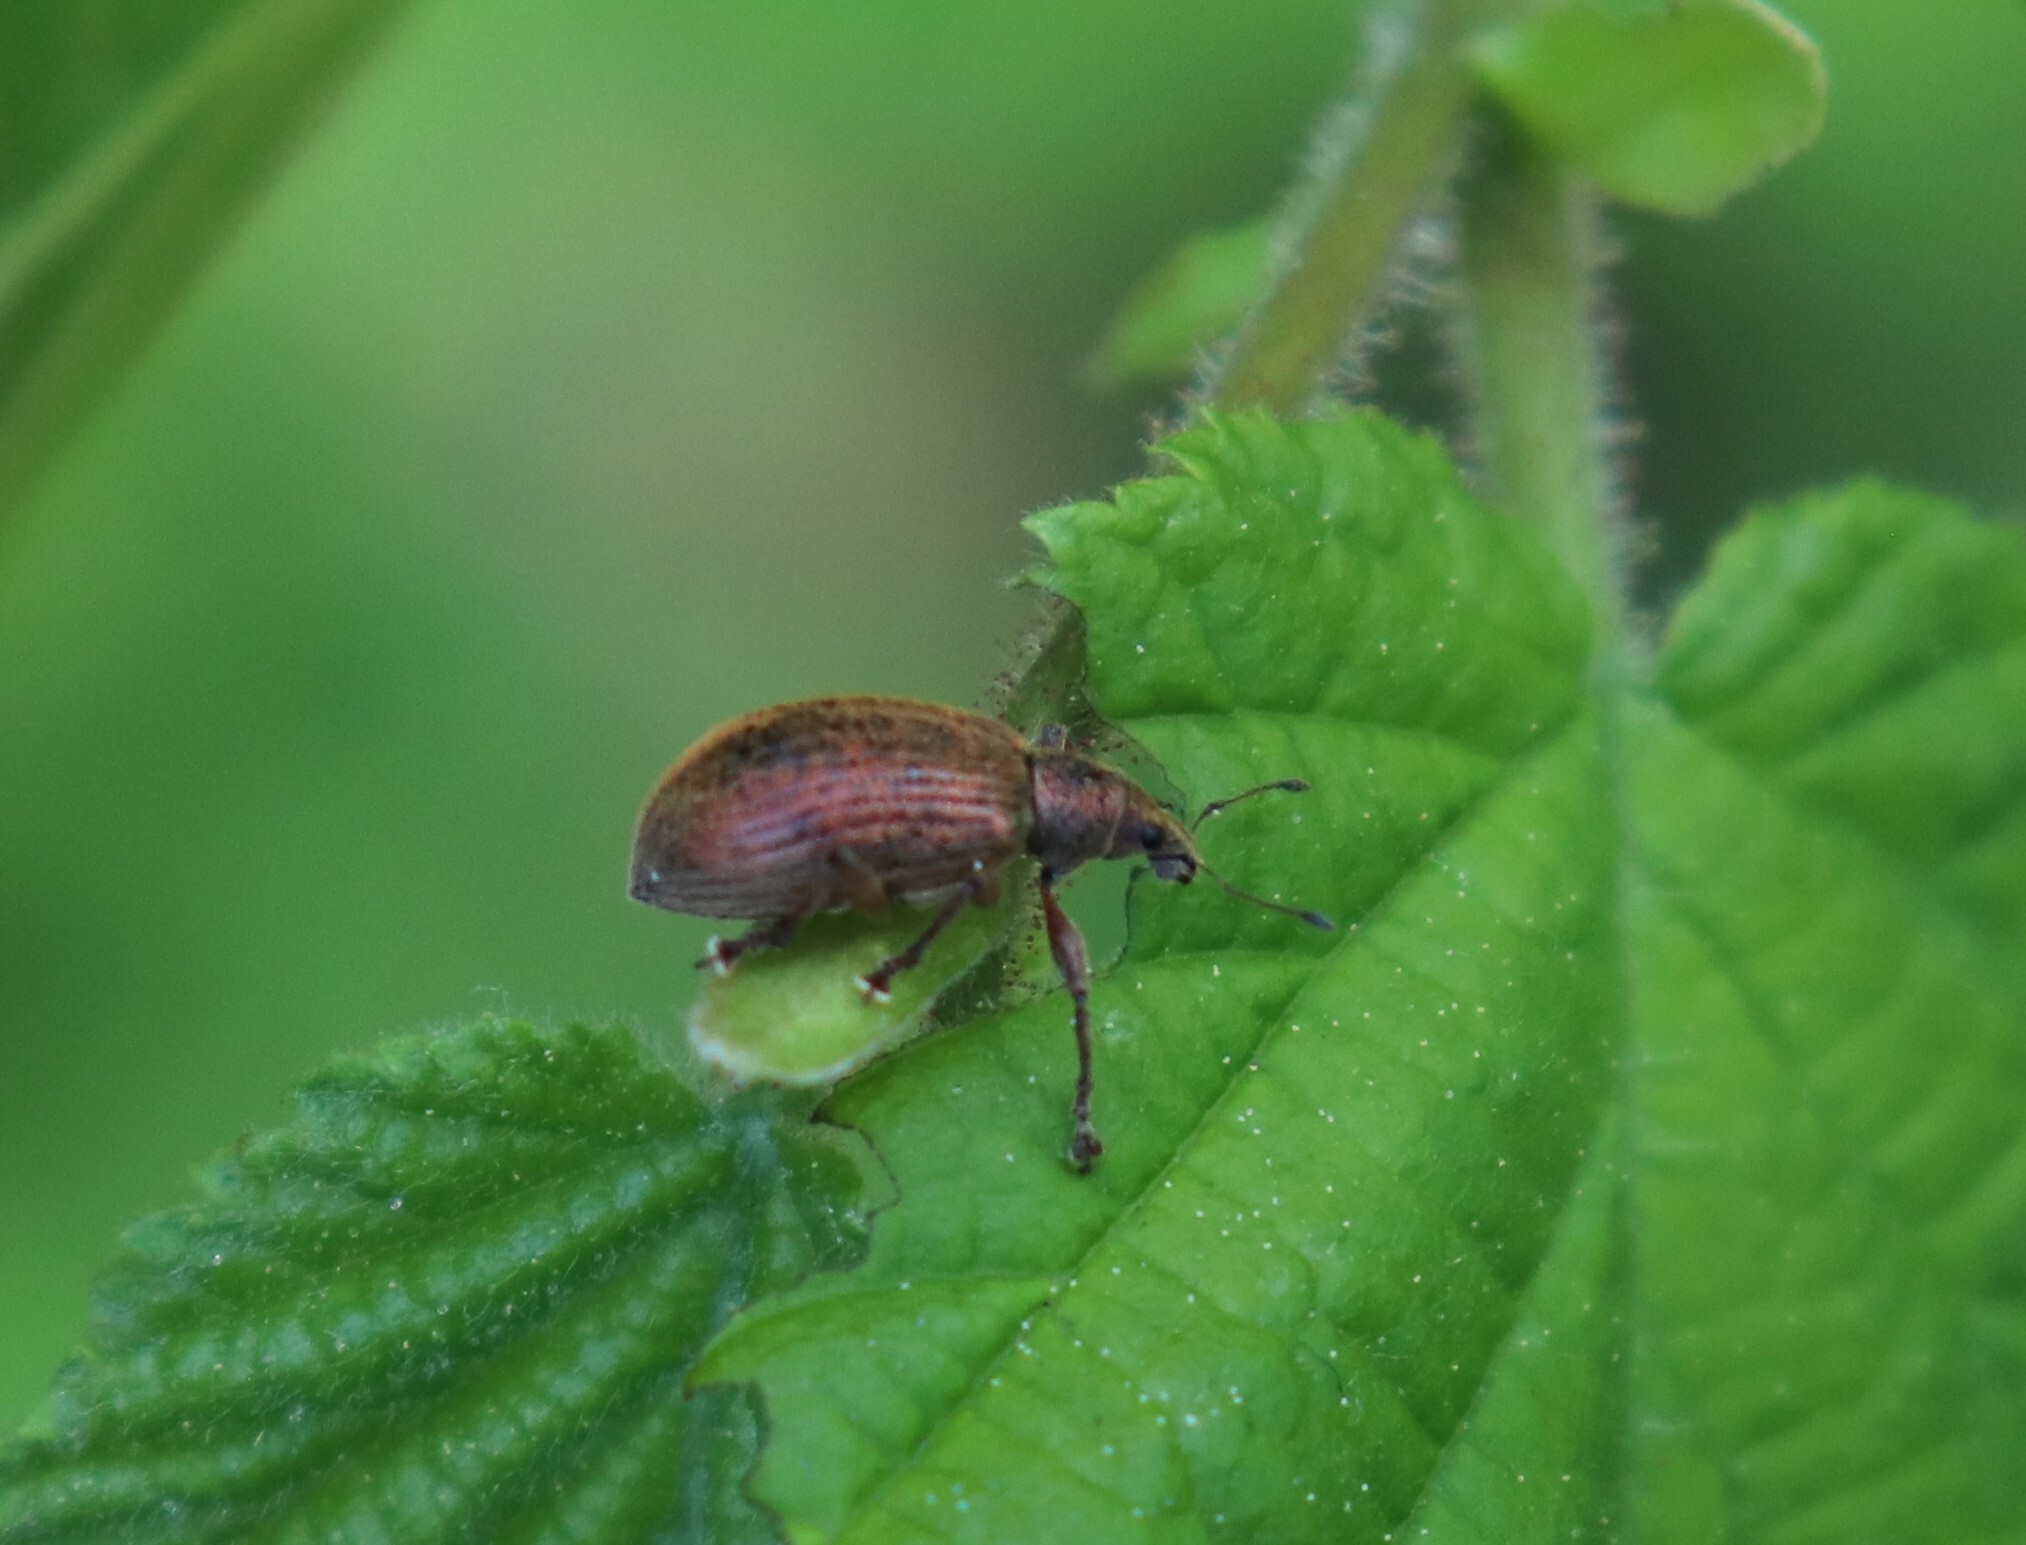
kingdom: Animalia
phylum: Arthropoda
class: Insecta
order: Coleoptera
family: Curculionidae
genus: Polydrusus
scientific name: Polydrusus mollis
